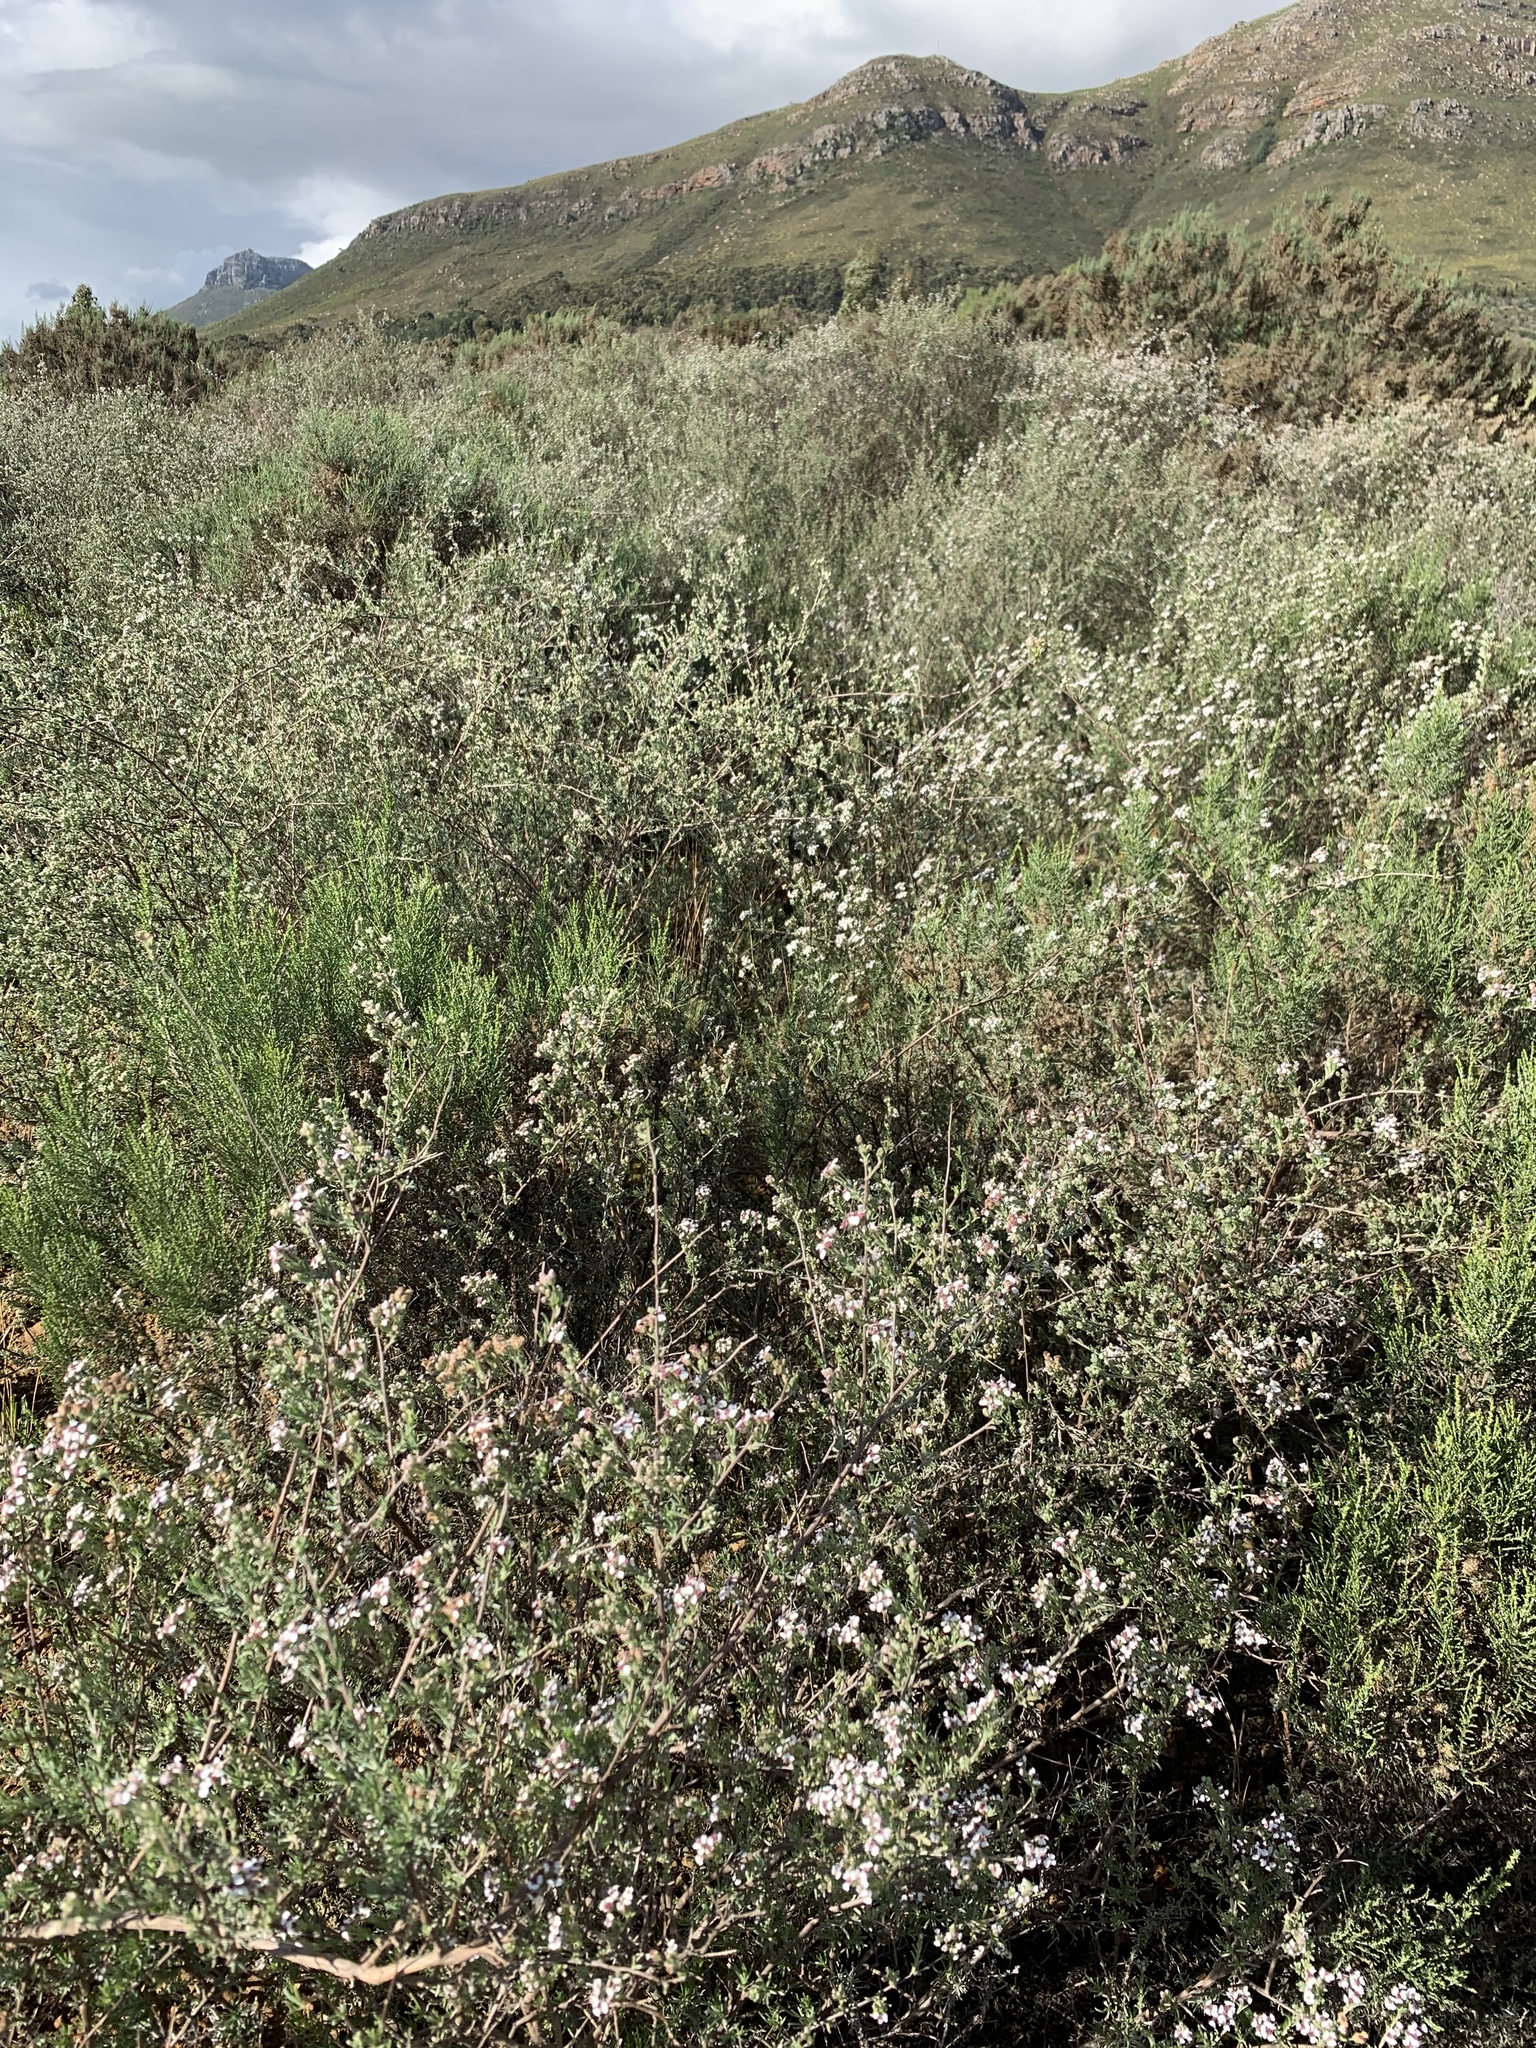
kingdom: Plantae
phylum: Tracheophyta
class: Magnoliopsida
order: Asterales
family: Asteraceae
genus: Eriocephalus
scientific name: Eriocephalus africanus
